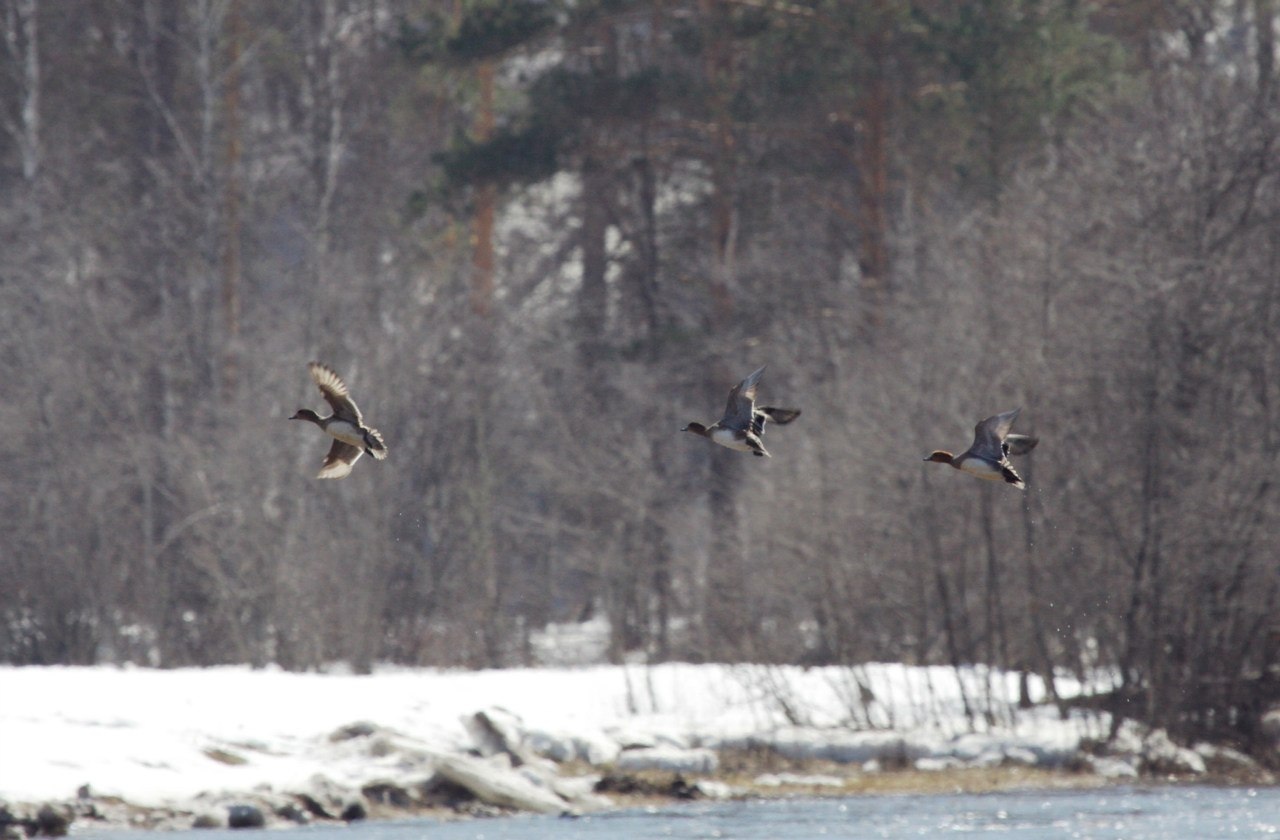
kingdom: Animalia
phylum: Chordata
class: Aves
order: Anseriformes
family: Anatidae
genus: Mareca
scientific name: Mareca penelope
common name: Eurasian wigeon
